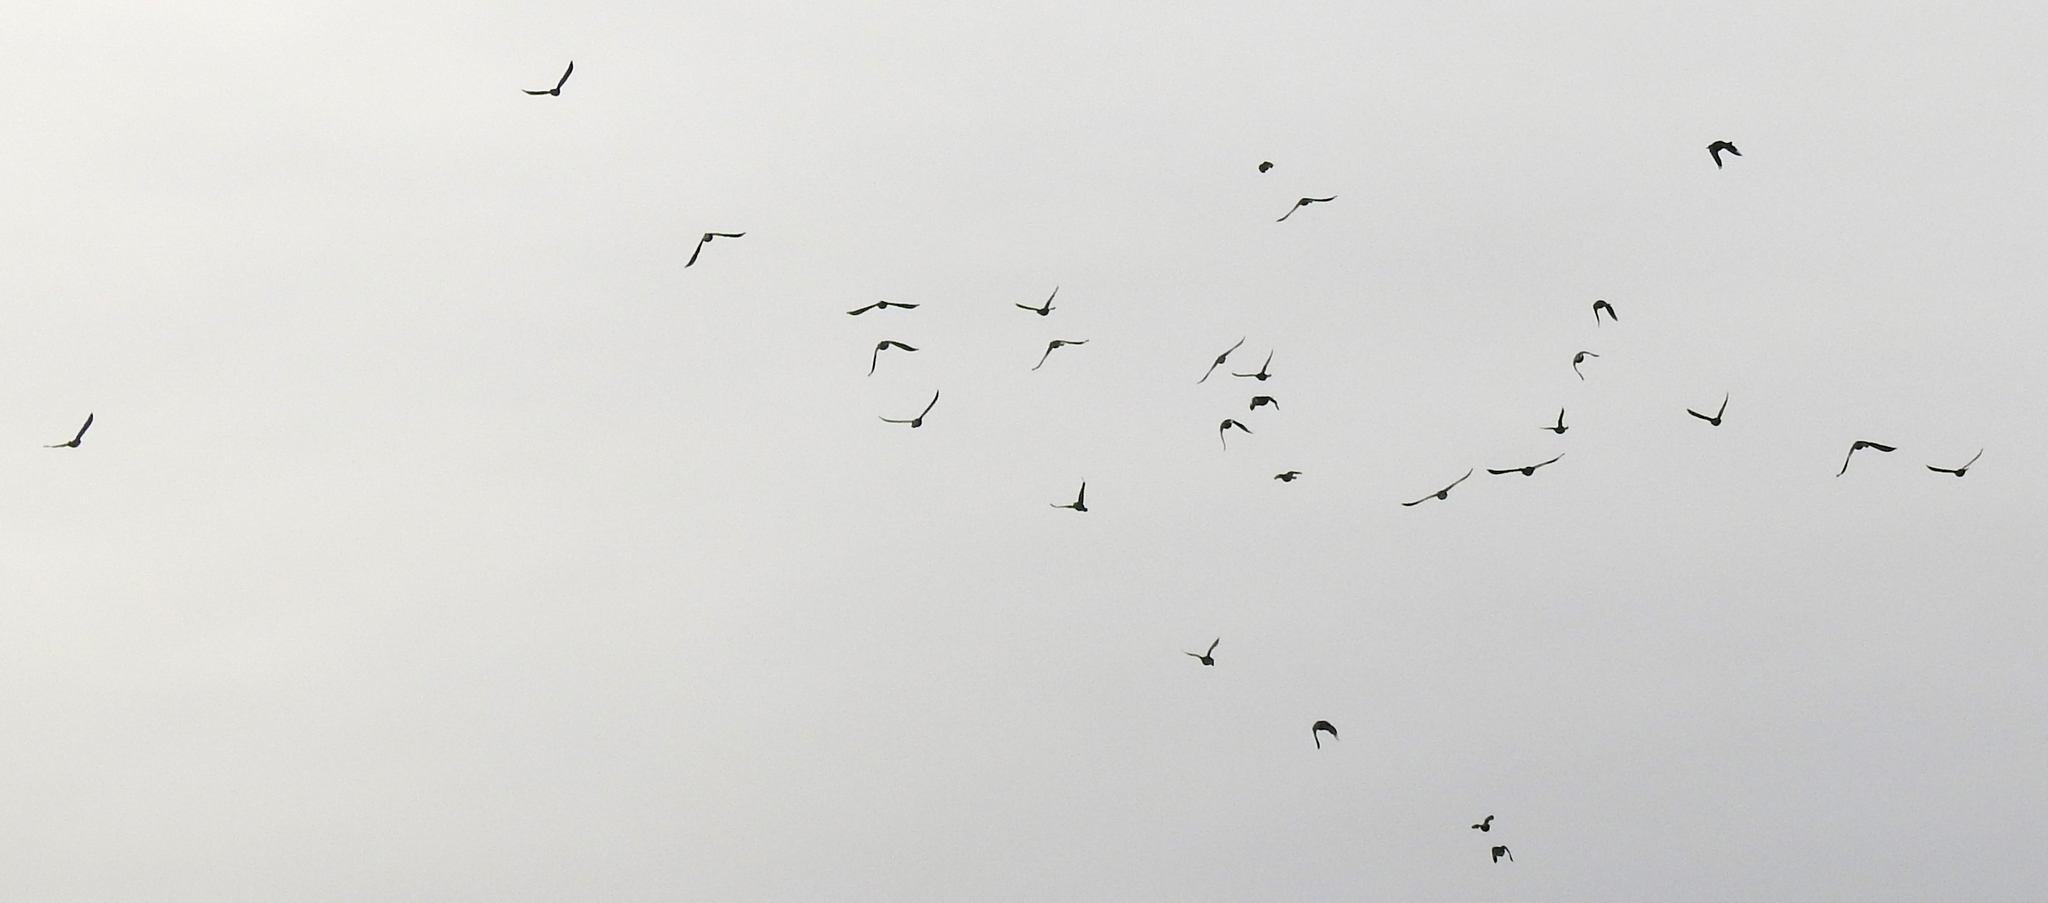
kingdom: Animalia
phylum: Chordata
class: Aves
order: Passeriformes
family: Icteridae
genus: Quiscalus
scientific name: Quiscalus mexicanus
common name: Great-tailed grackle
